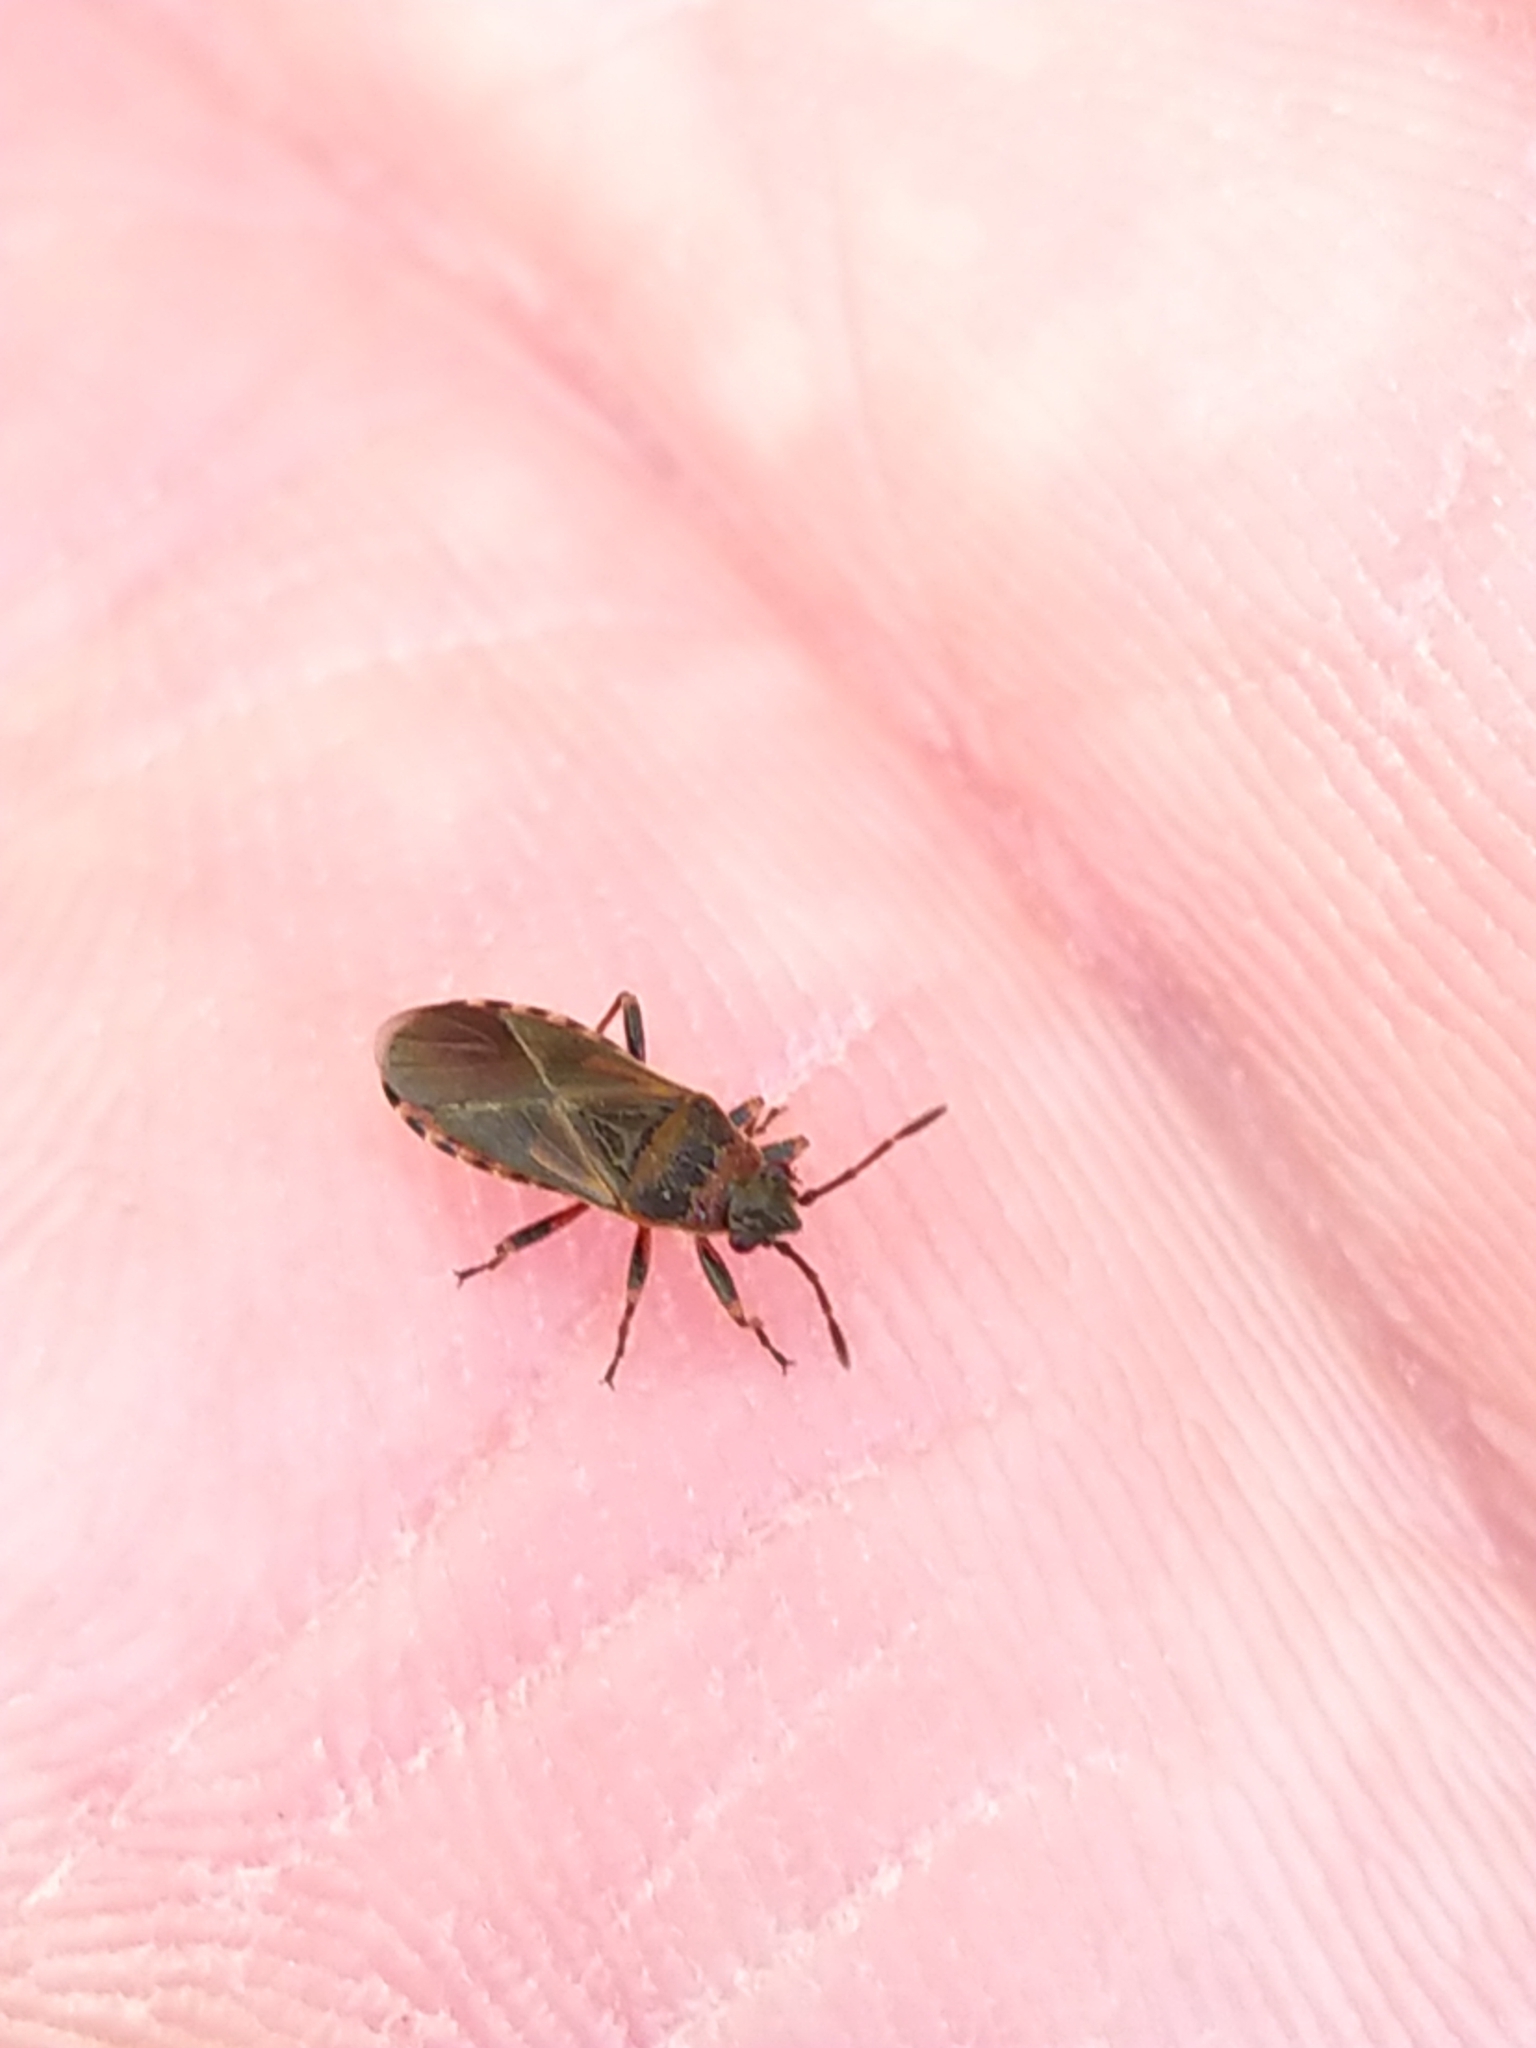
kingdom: Animalia
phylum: Arthropoda
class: Insecta
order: Hemiptera
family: Lygaeidae
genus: Arocatus
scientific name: Arocatus melanocephalus
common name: Lygaeid bug
